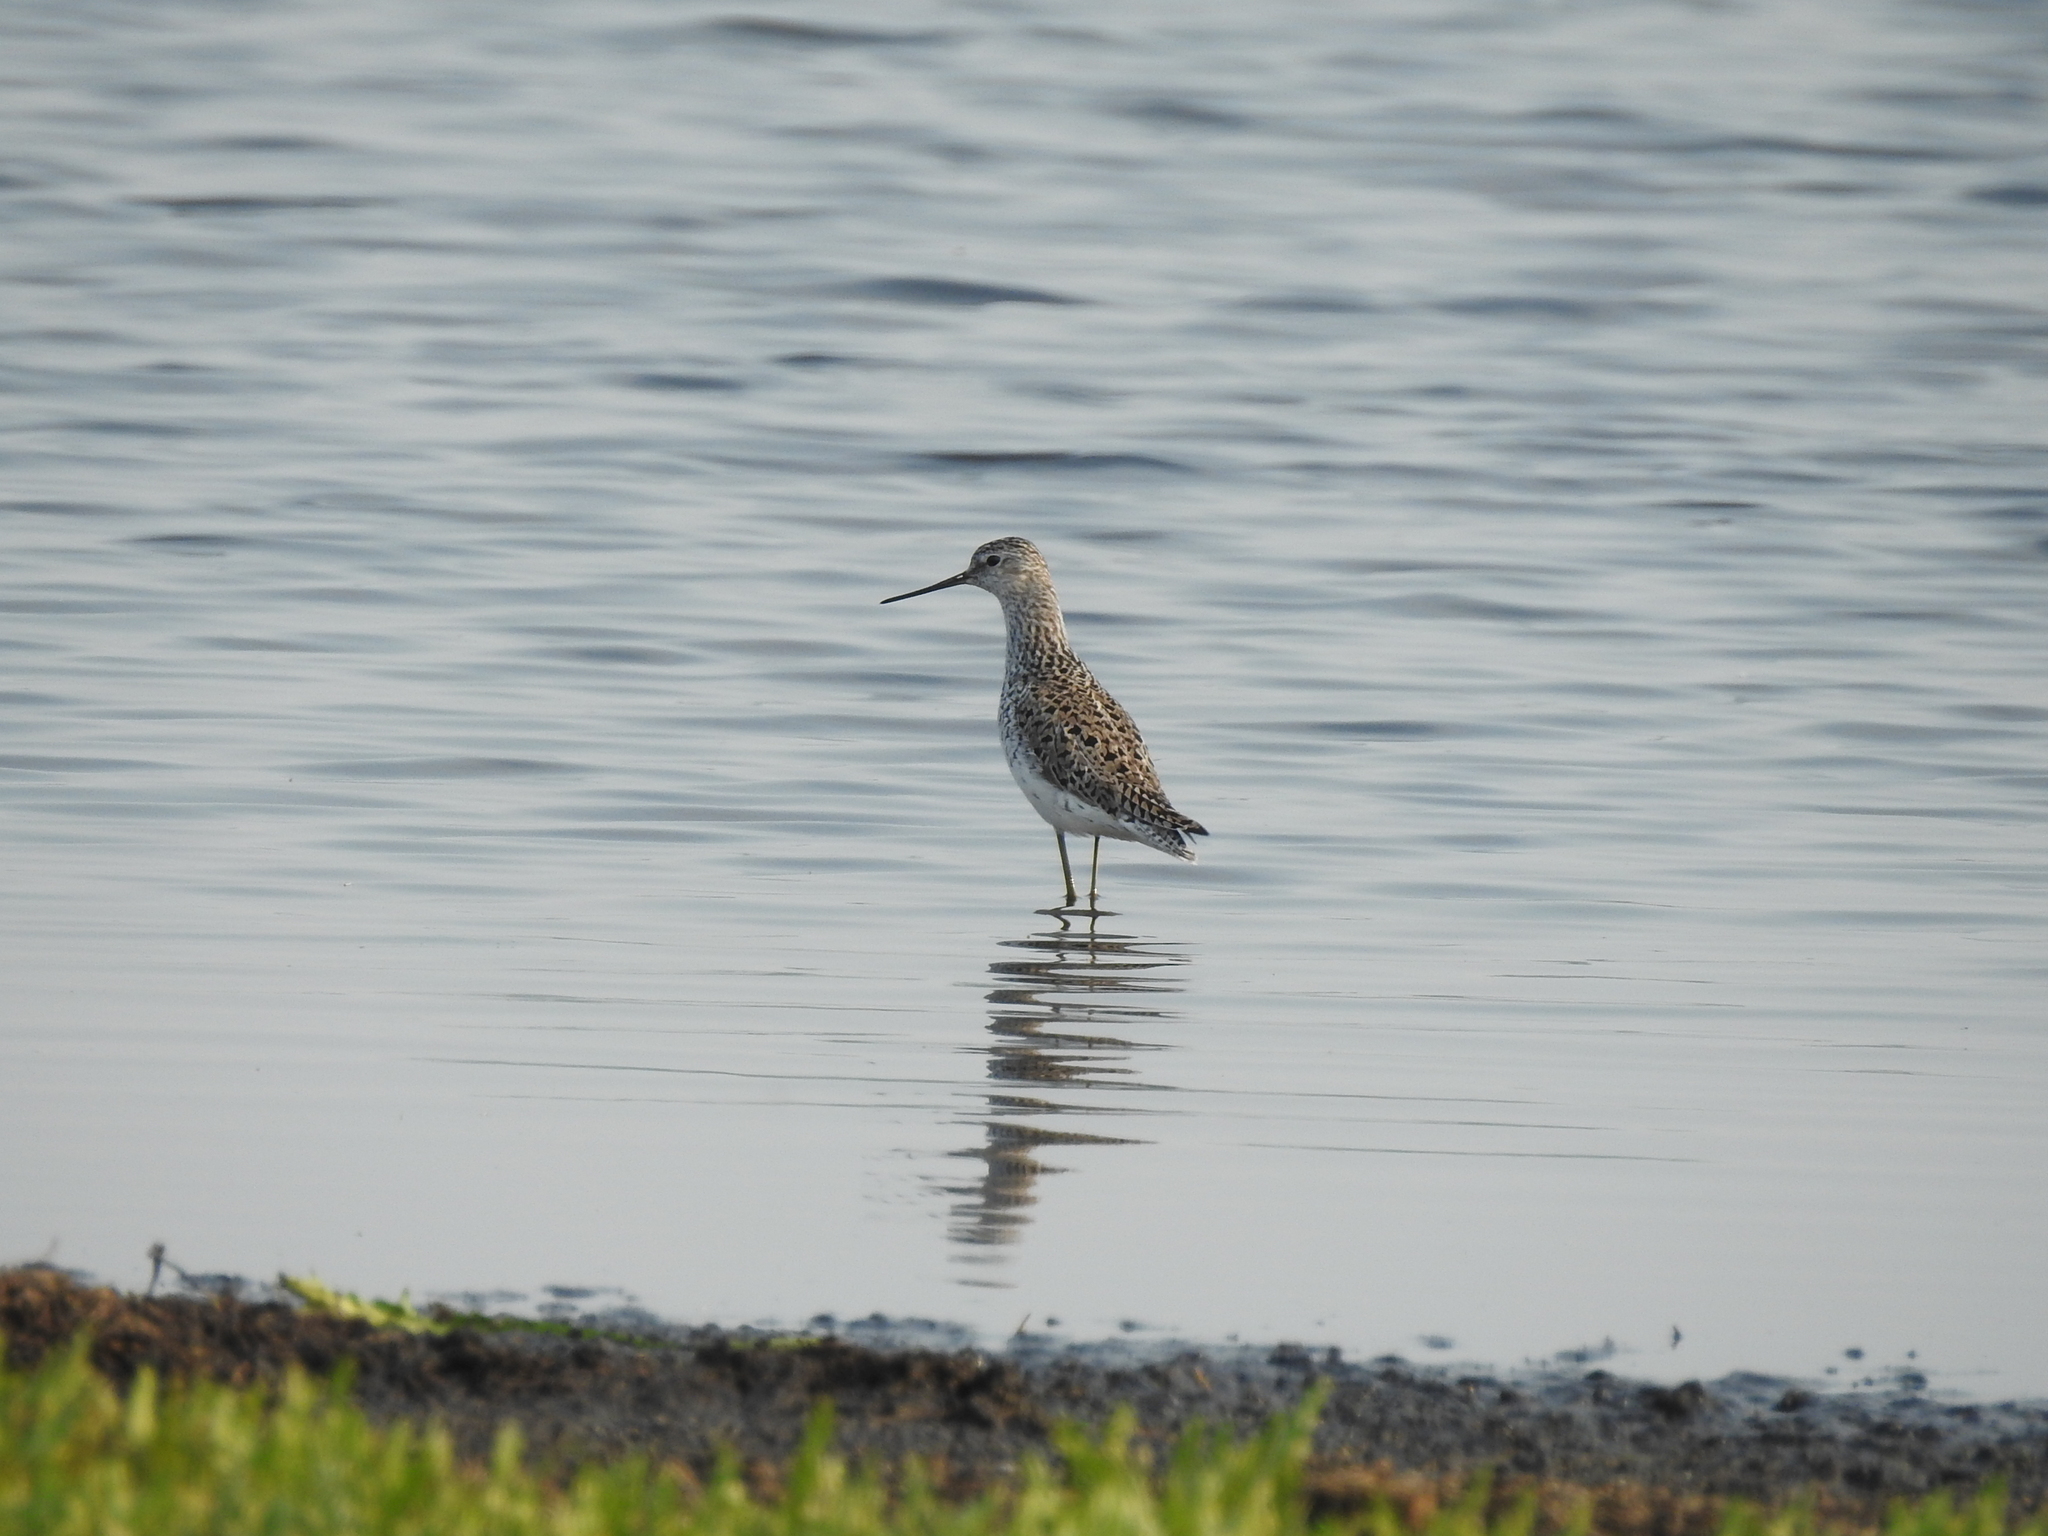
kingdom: Animalia
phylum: Chordata
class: Aves
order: Charadriiformes
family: Scolopacidae
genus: Tringa
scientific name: Tringa stagnatilis
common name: Marsh sandpiper
